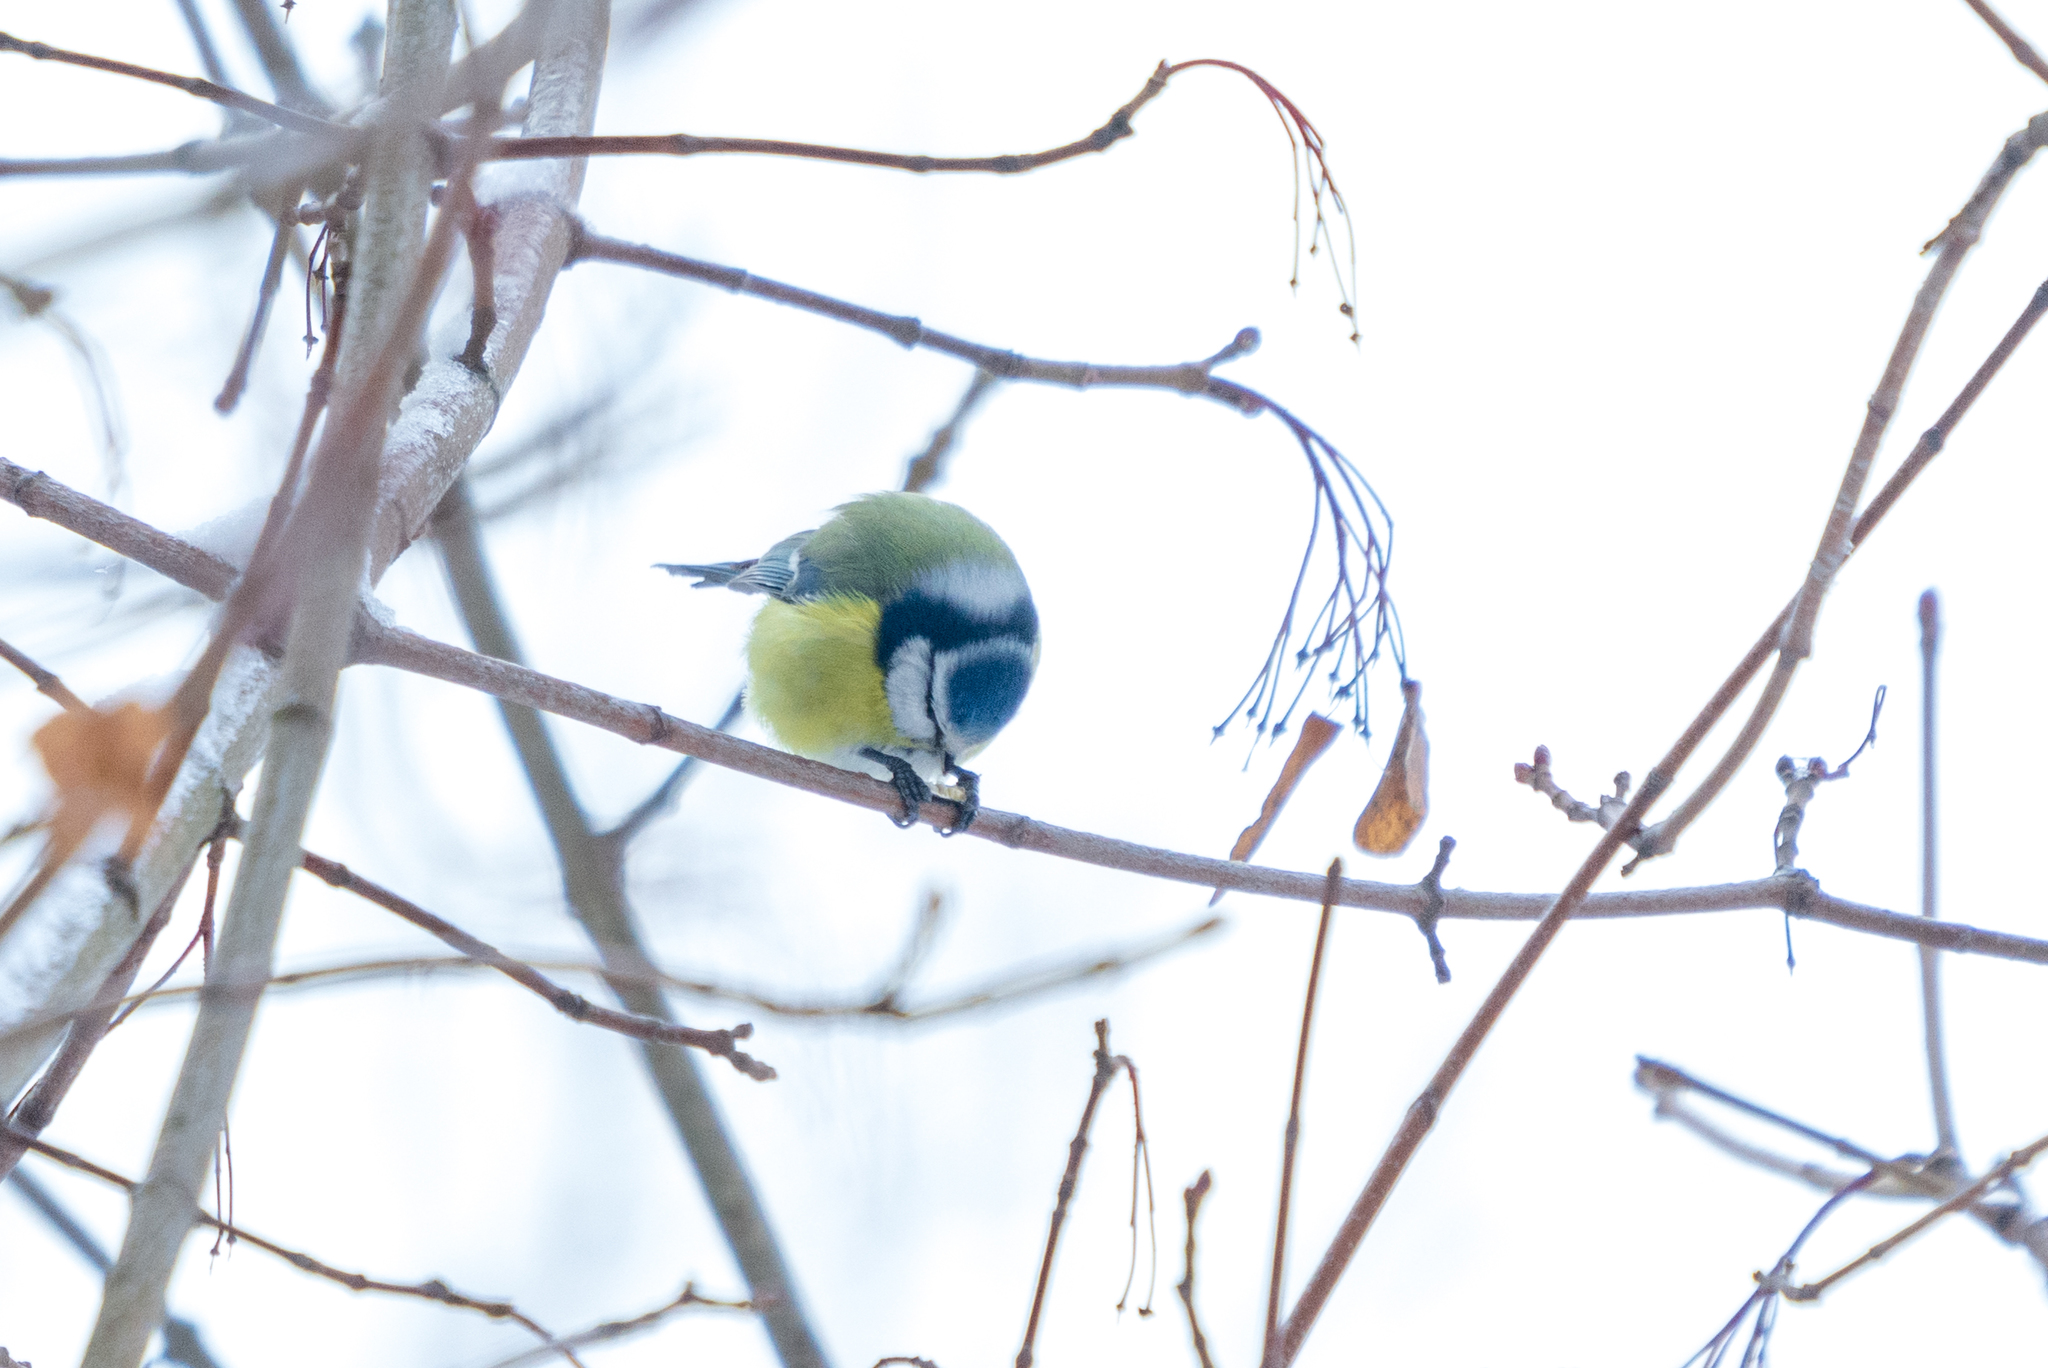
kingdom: Animalia
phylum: Chordata
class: Aves
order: Passeriformes
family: Paridae
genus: Cyanistes
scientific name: Cyanistes caeruleus
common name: Eurasian blue tit
